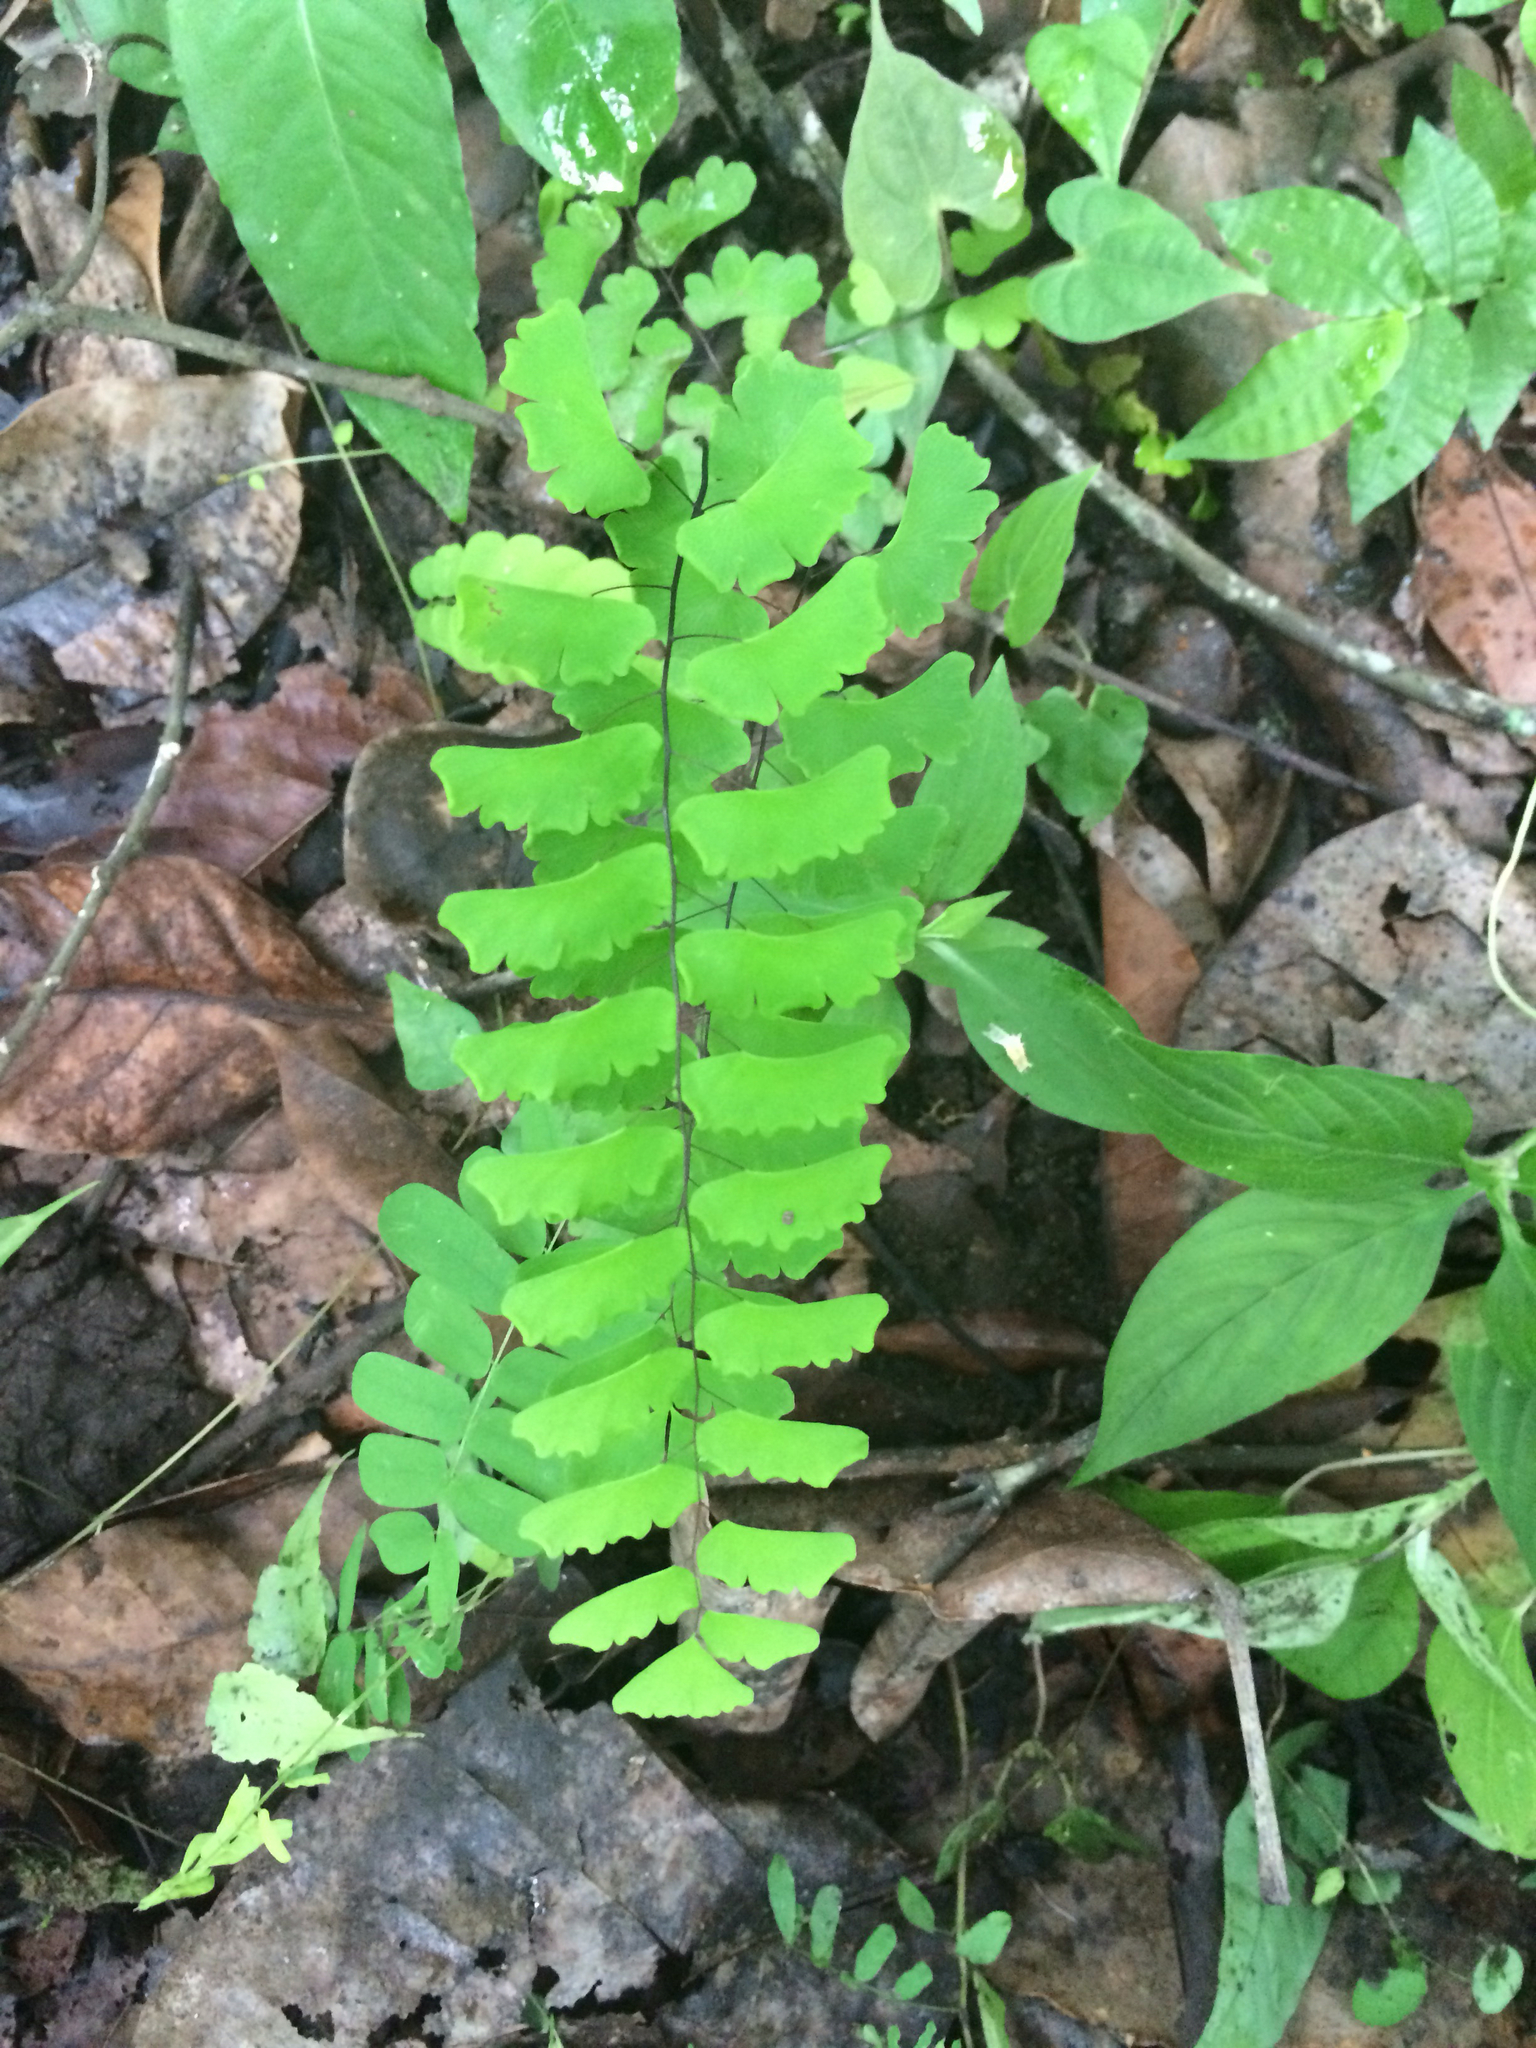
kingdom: Plantae
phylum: Tracheophyta
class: Polypodiopsida
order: Polypodiales
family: Pteridaceae
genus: Adiantum
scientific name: Adiantum philippense
